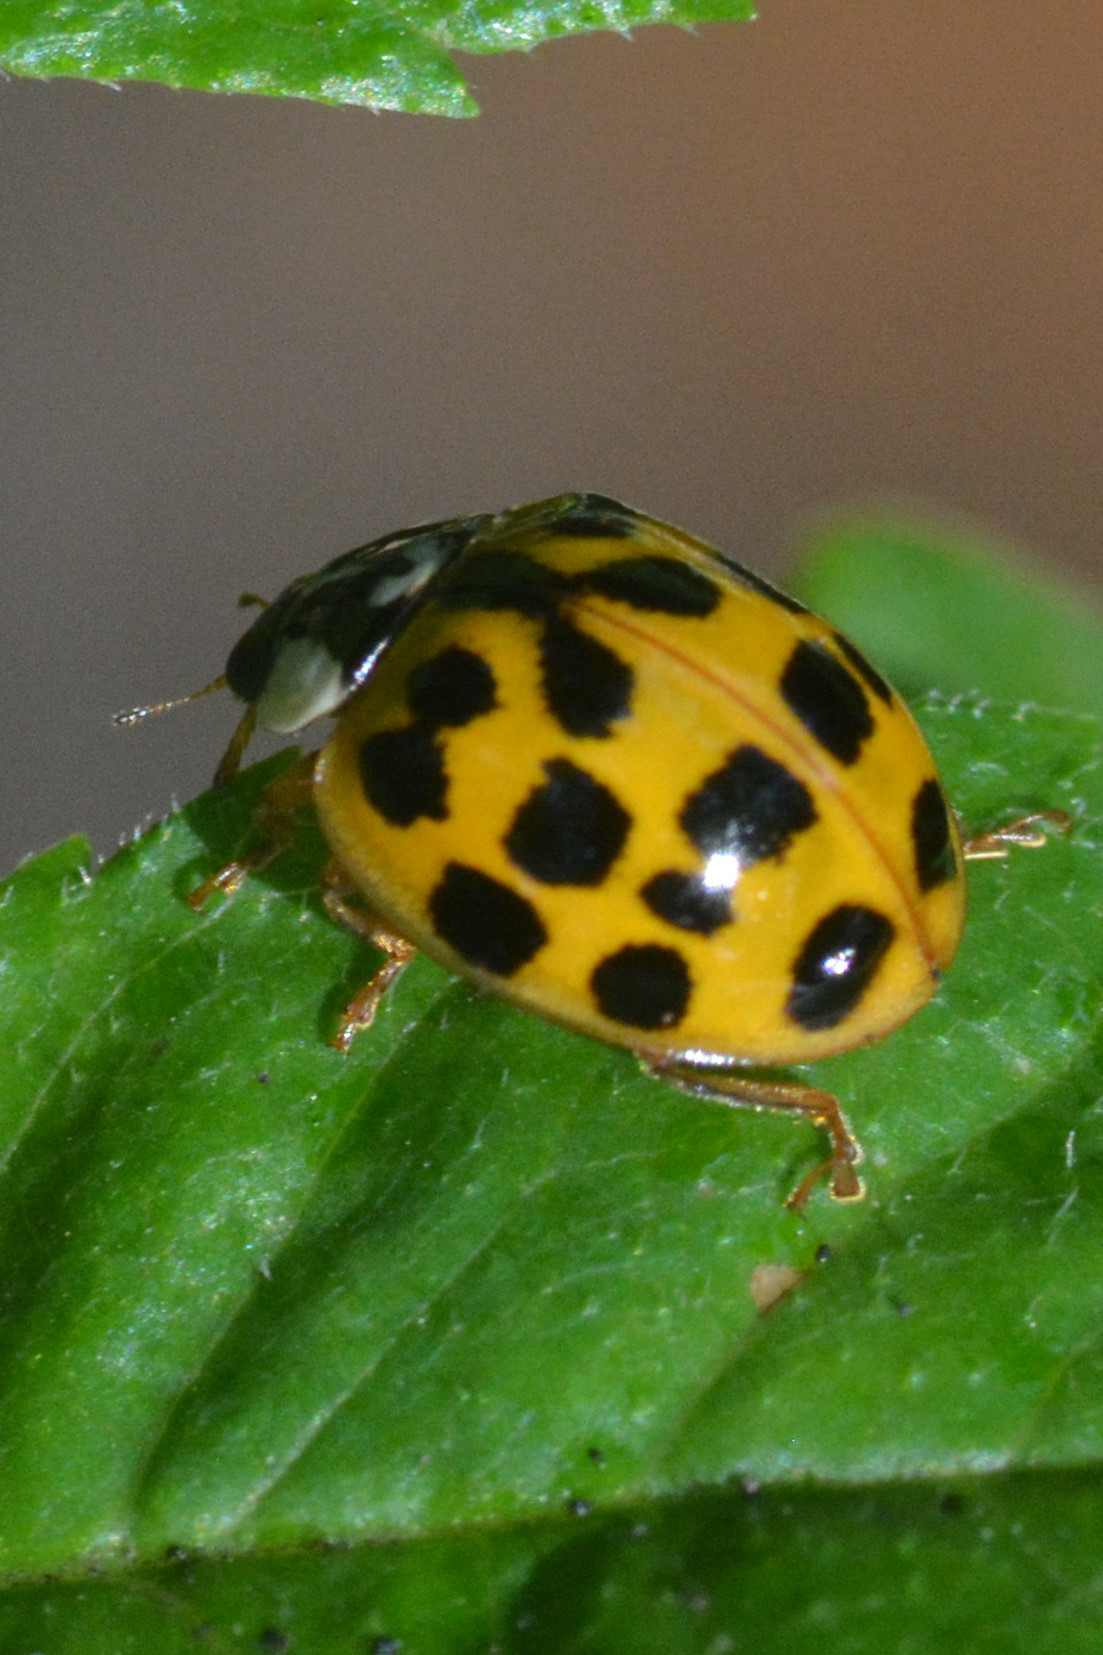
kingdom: Animalia
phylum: Arthropoda
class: Insecta
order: Coleoptera
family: Coccinellidae
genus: Harmonia
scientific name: Harmonia axyridis
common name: Harlequin ladybird
